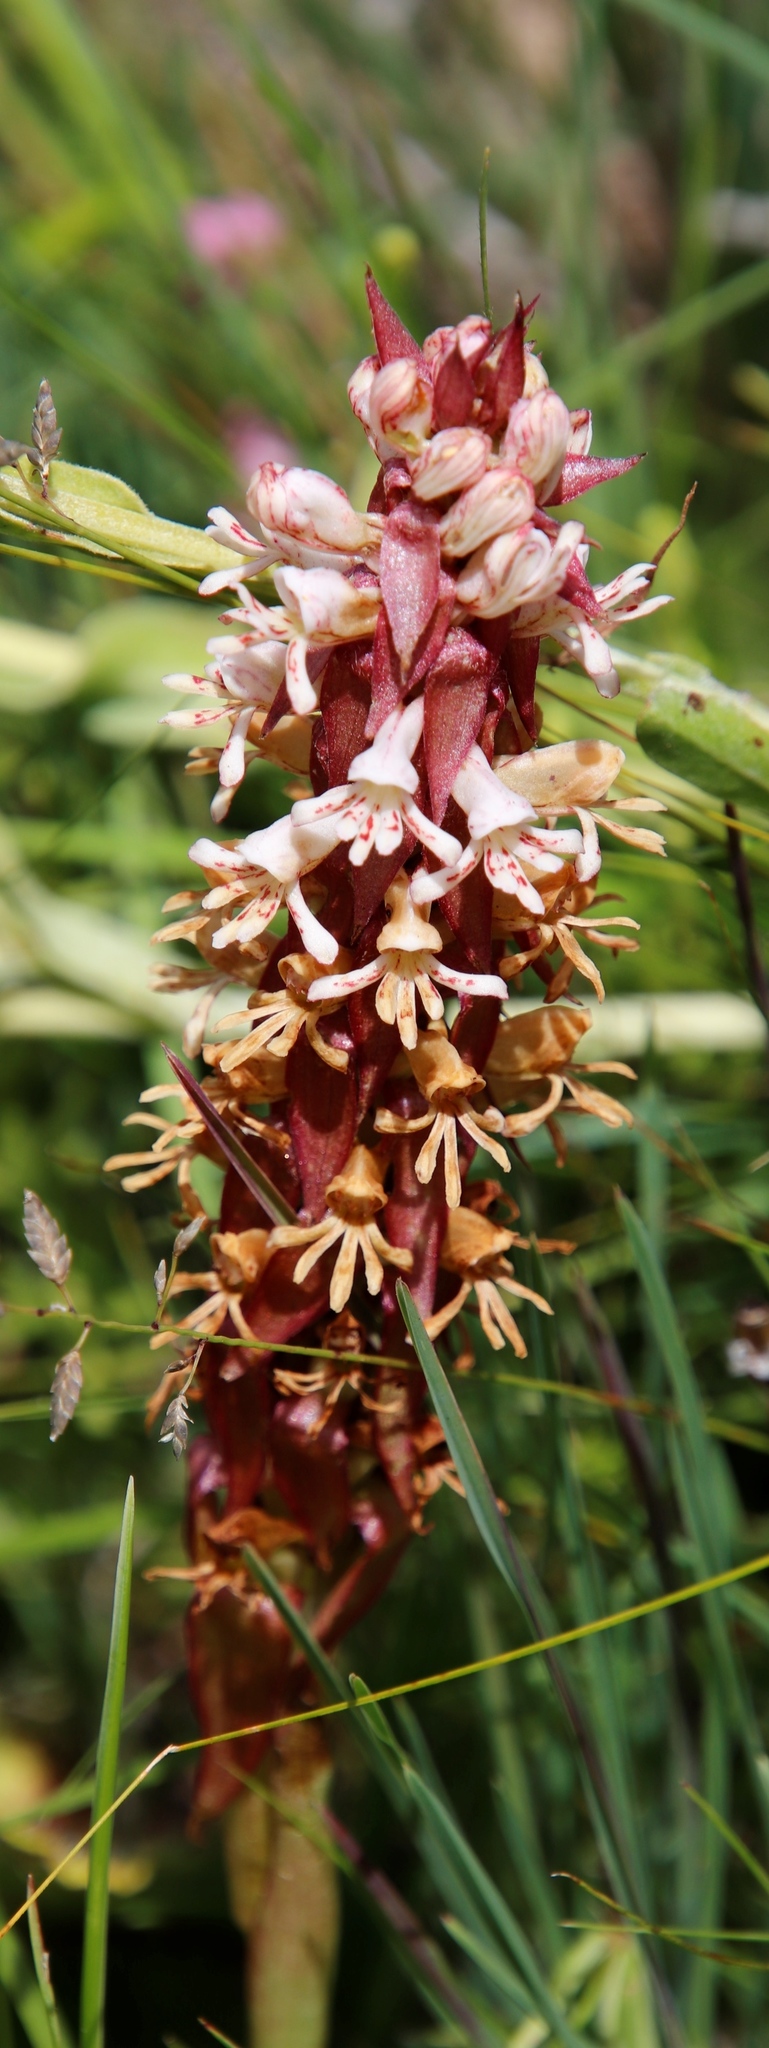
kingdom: Plantae
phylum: Tracheophyta
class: Liliopsida
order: Asparagales
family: Orchidaceae
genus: Satyrium
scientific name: Satyrium cristatum
